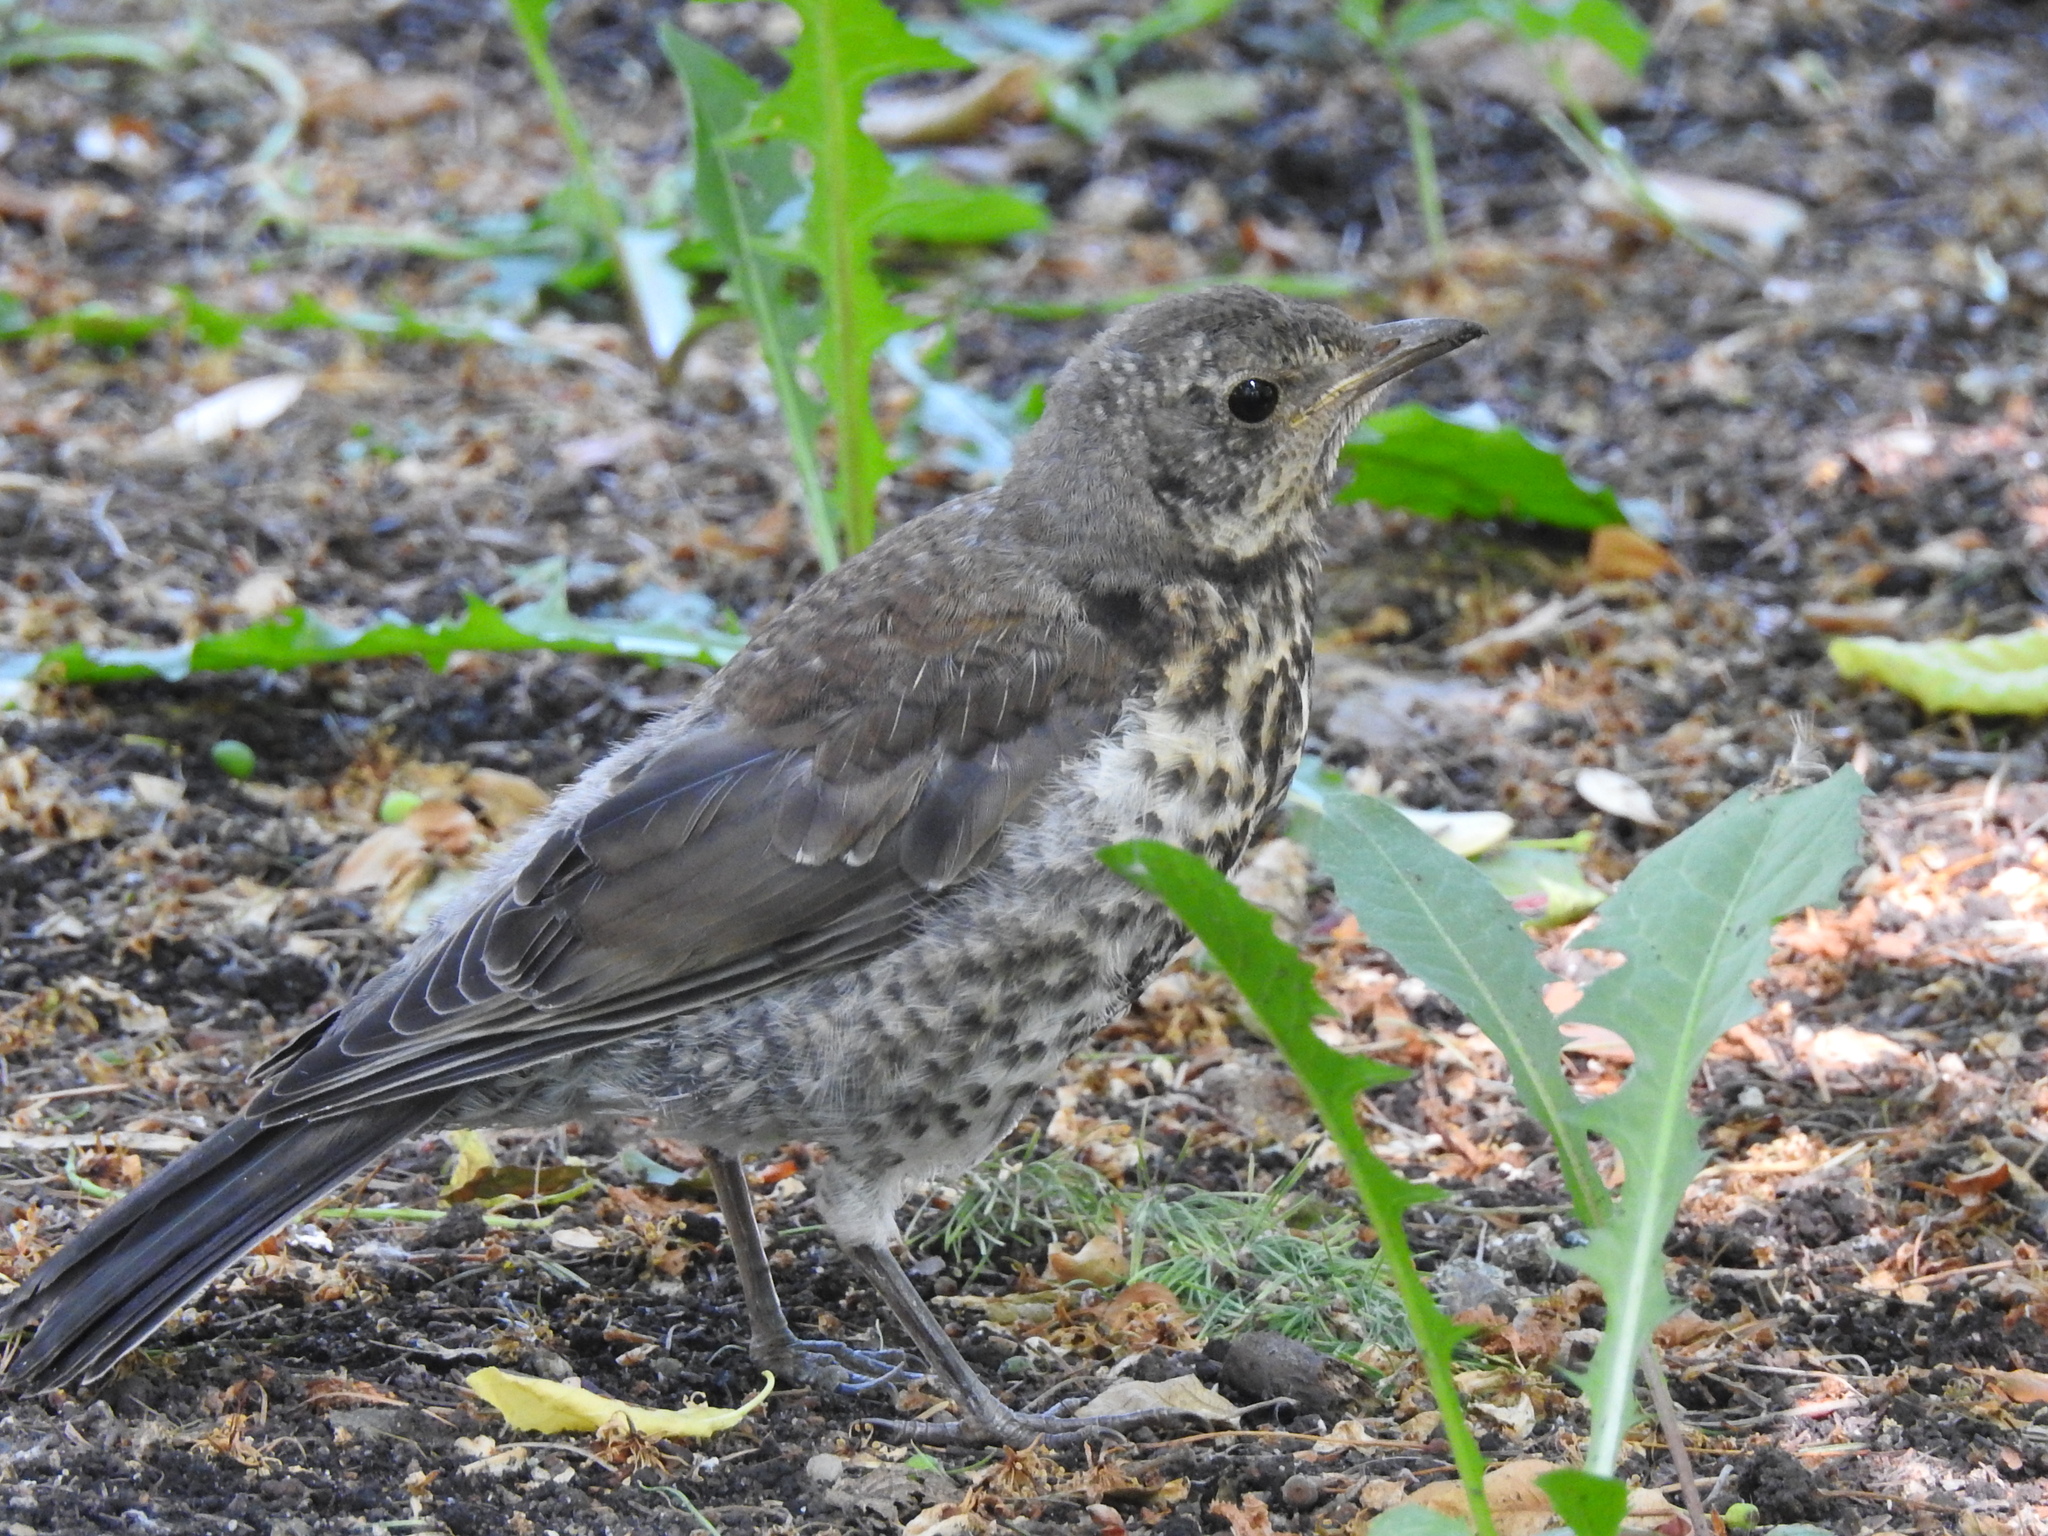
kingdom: Animalia
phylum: Chordata
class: Aves
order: Passeriformes
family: Turdidae
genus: Turdus
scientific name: Turdus pilaris
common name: Fieldfare
